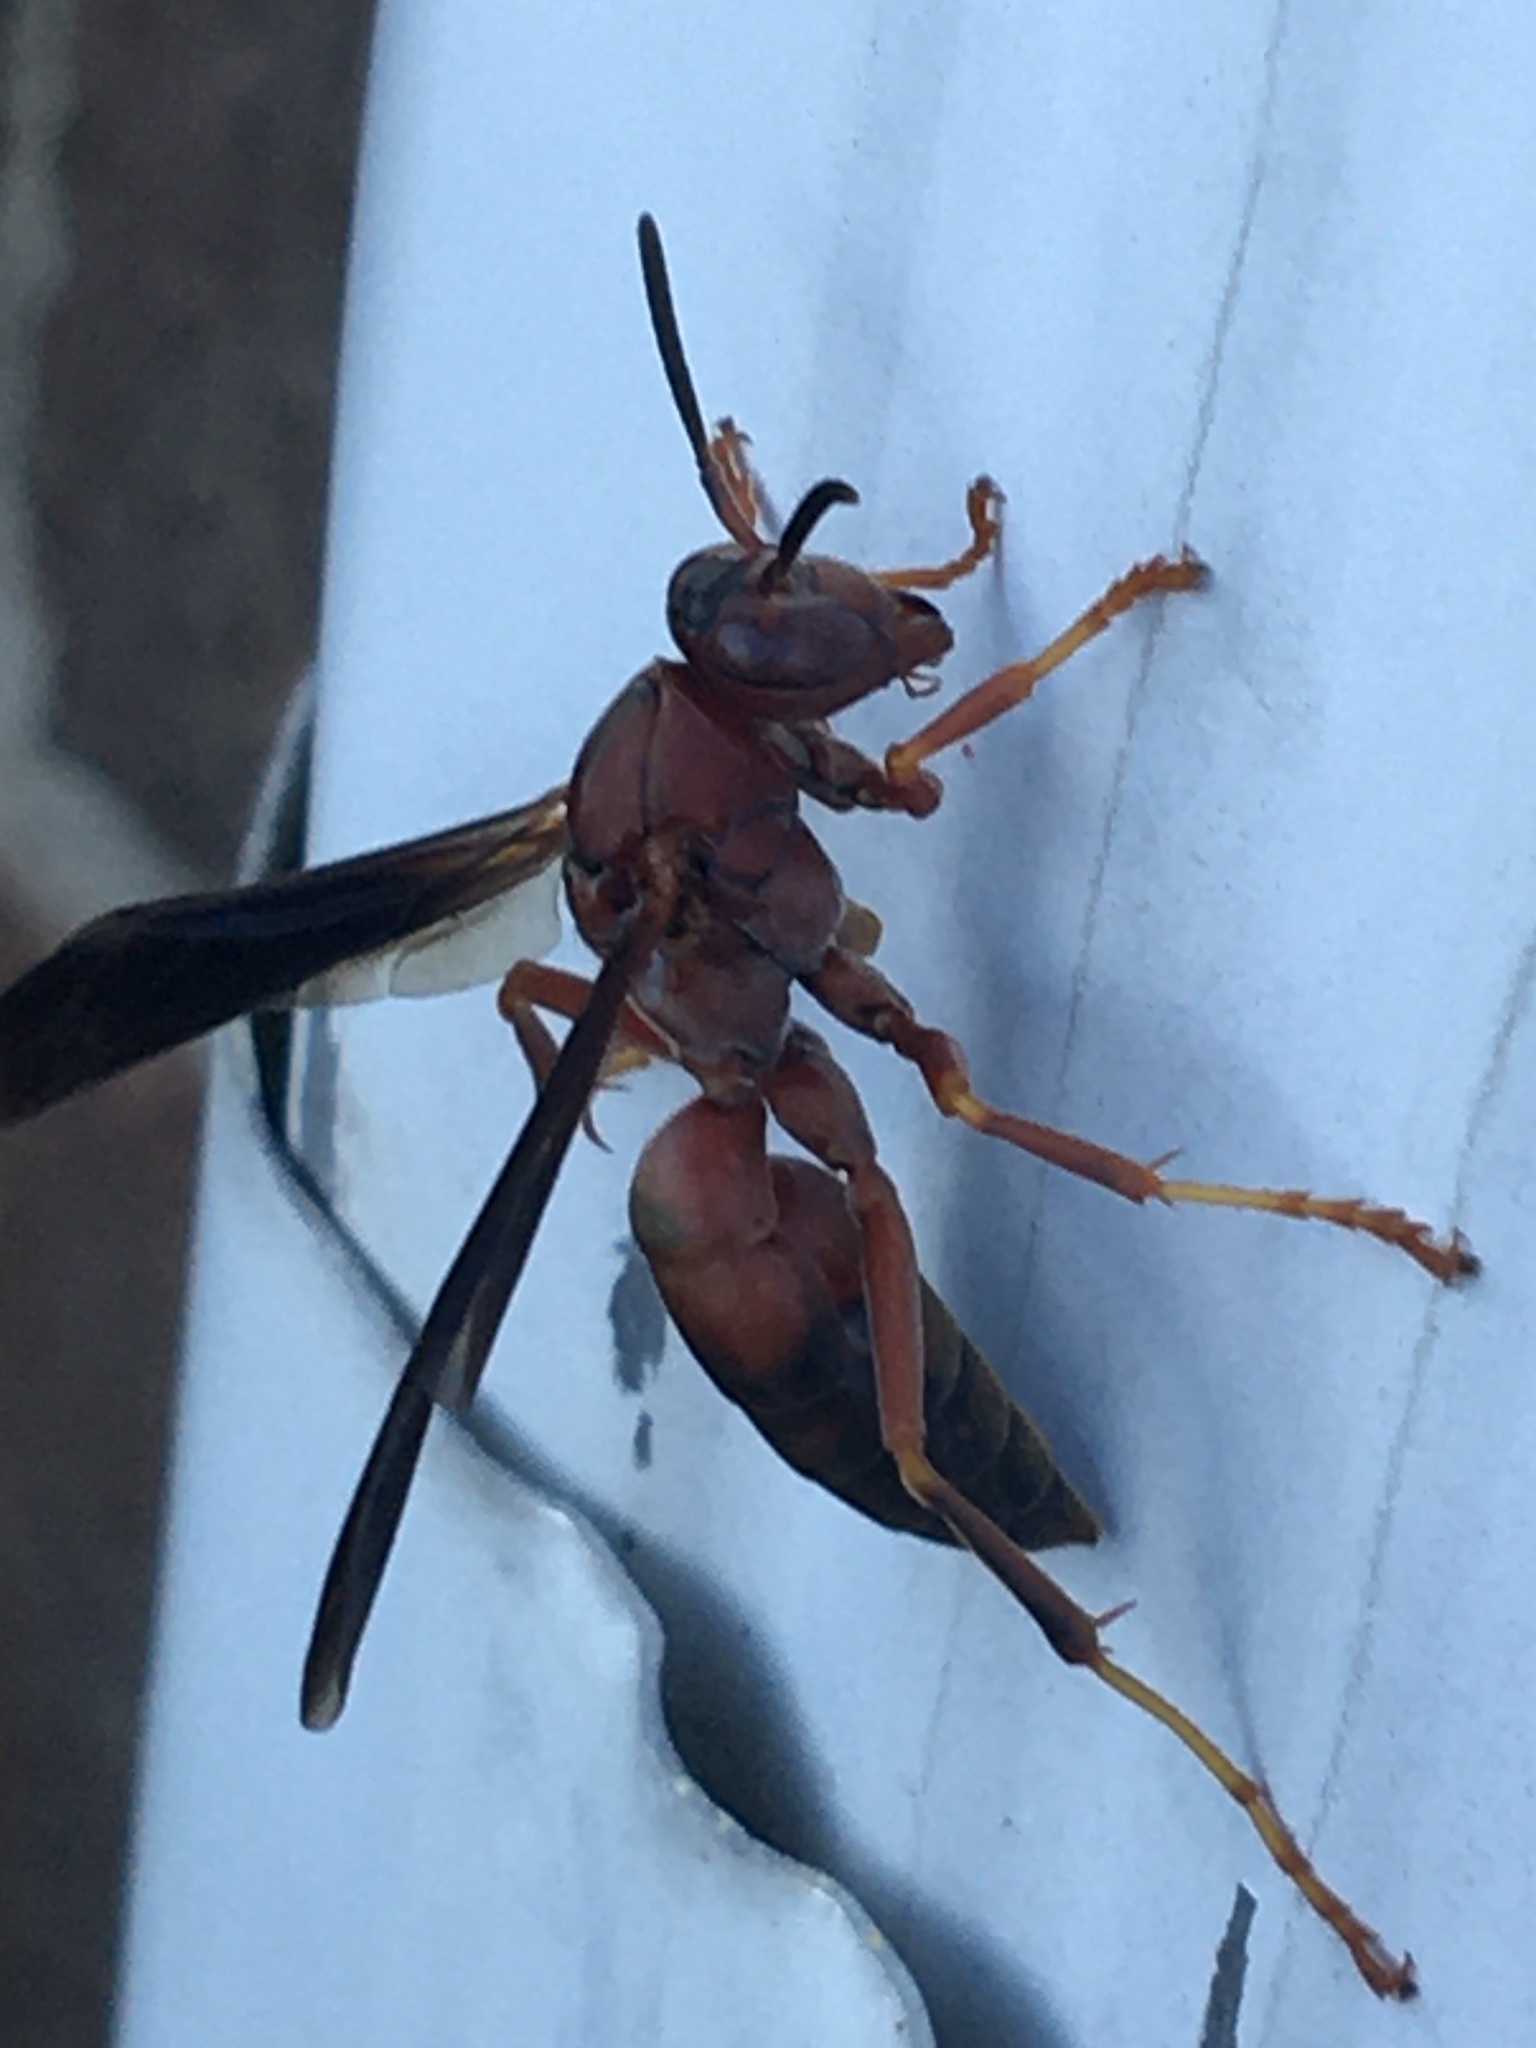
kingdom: Animalia
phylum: Arthropoda
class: Insecta
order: Hymenoptera
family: Eumenidae
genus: Polistes
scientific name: Polistes metricus
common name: Metric paper wasp
